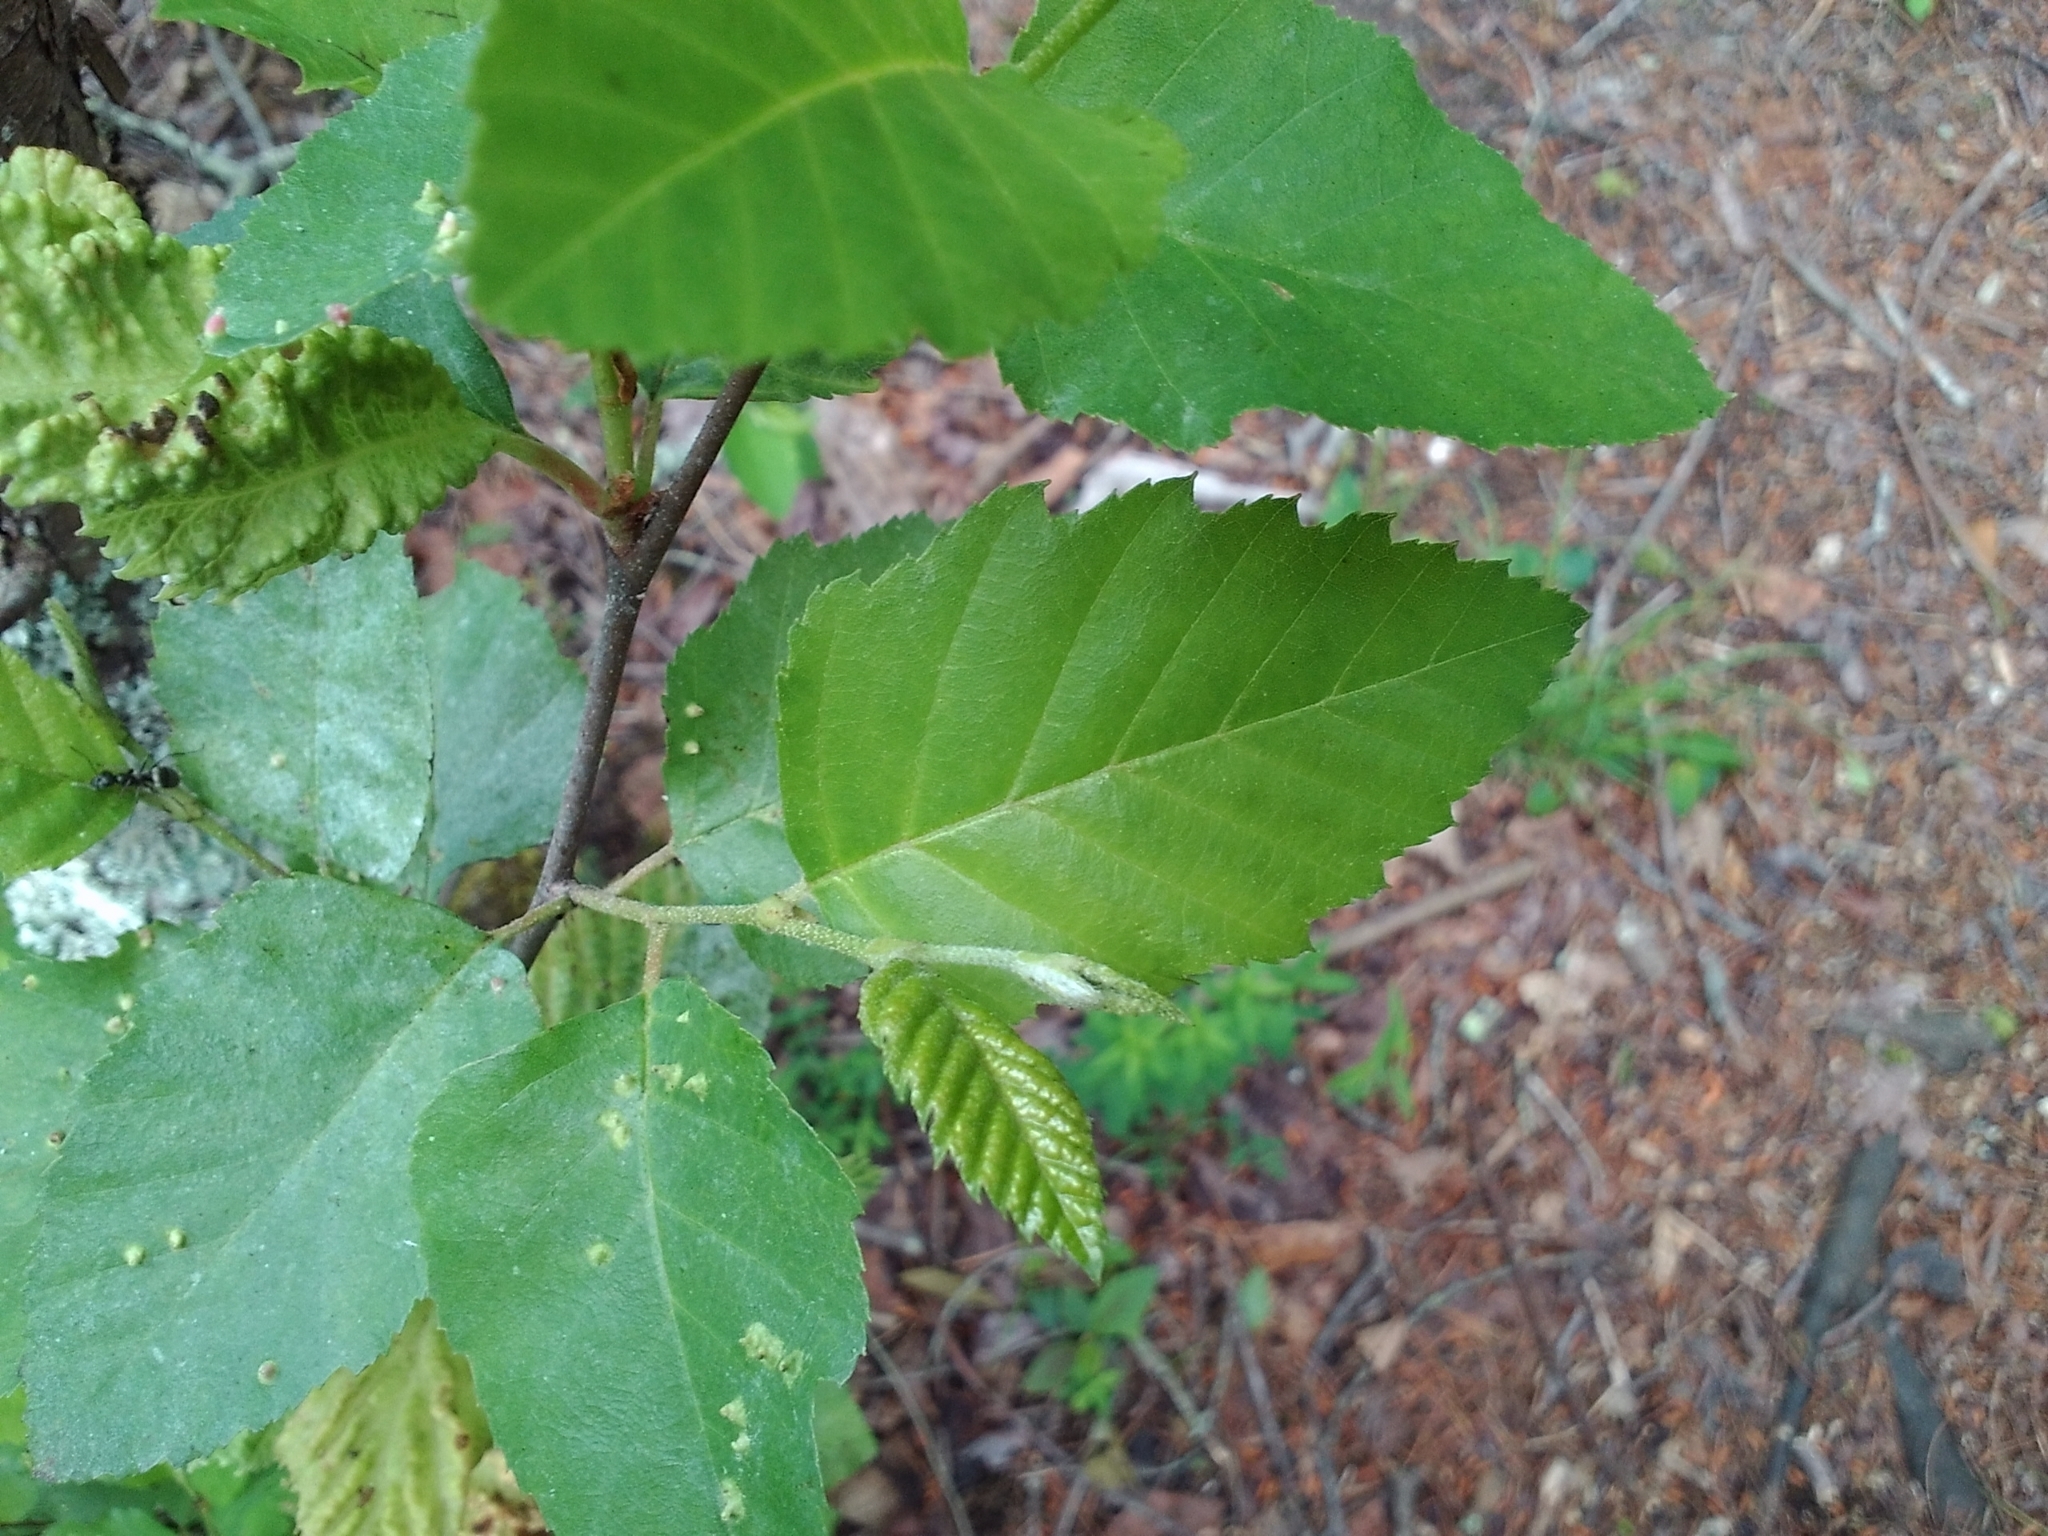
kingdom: Plantae
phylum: Tracheophyta
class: Magnoliopsida
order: Fagales
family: Betulaceae
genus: Betula
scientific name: Betula nigra
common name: Black birch
